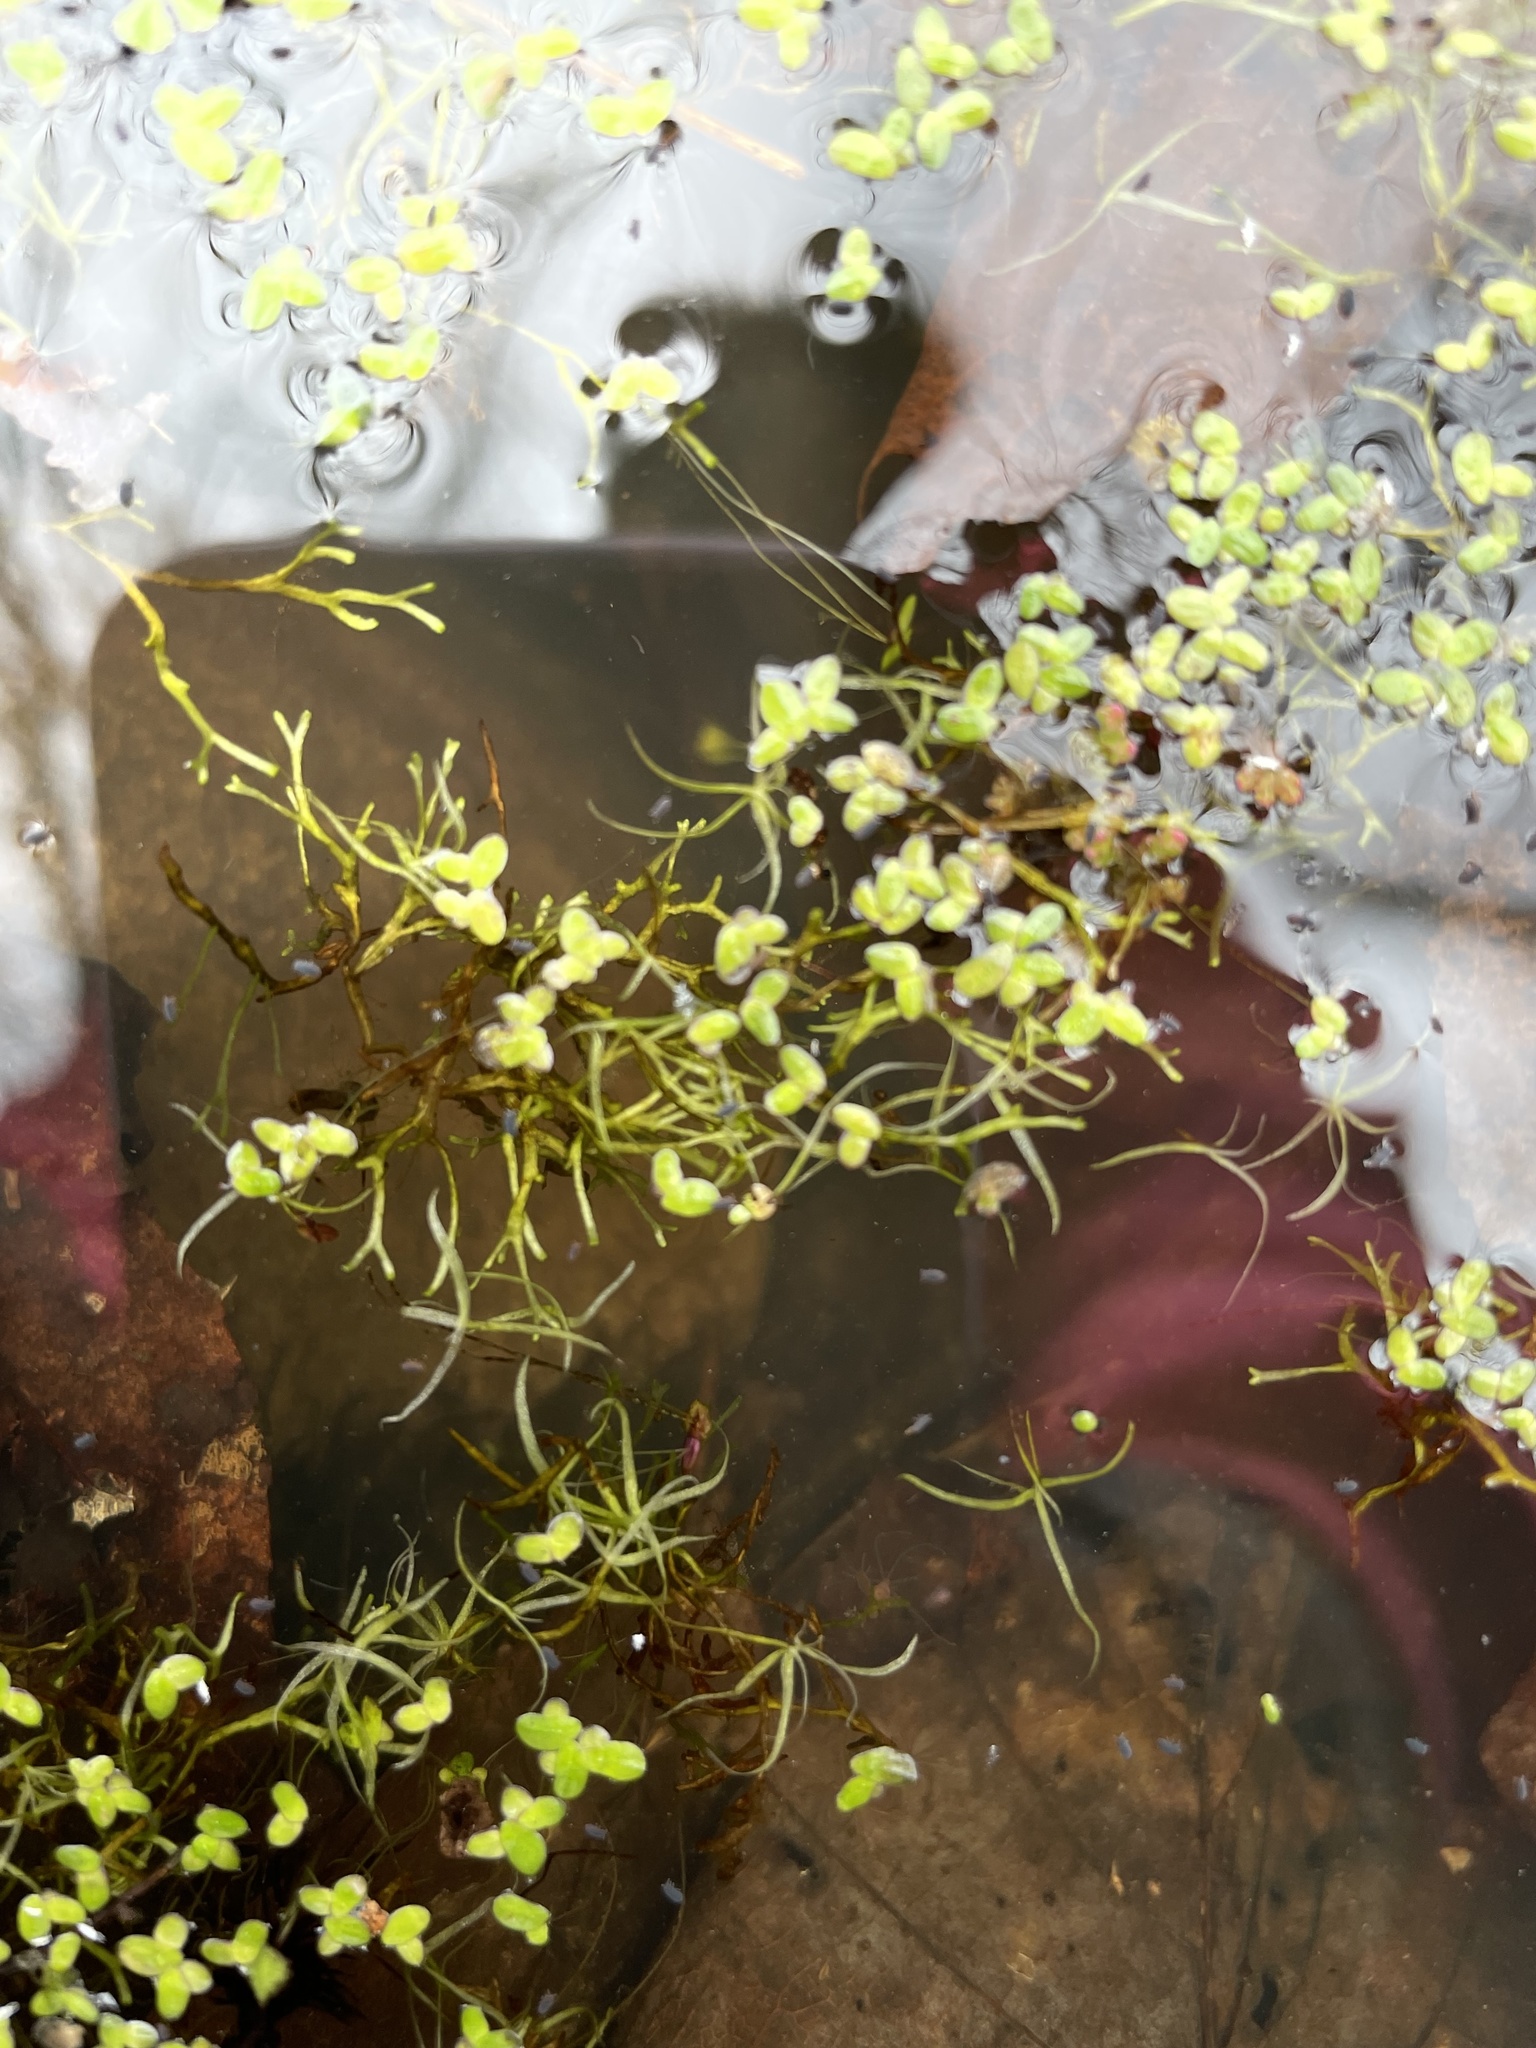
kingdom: Plantae
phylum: Tracheophyta
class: Liliopsida
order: Alismatales
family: Araceae
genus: Wolffiella
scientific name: Wolffiella gladiata
